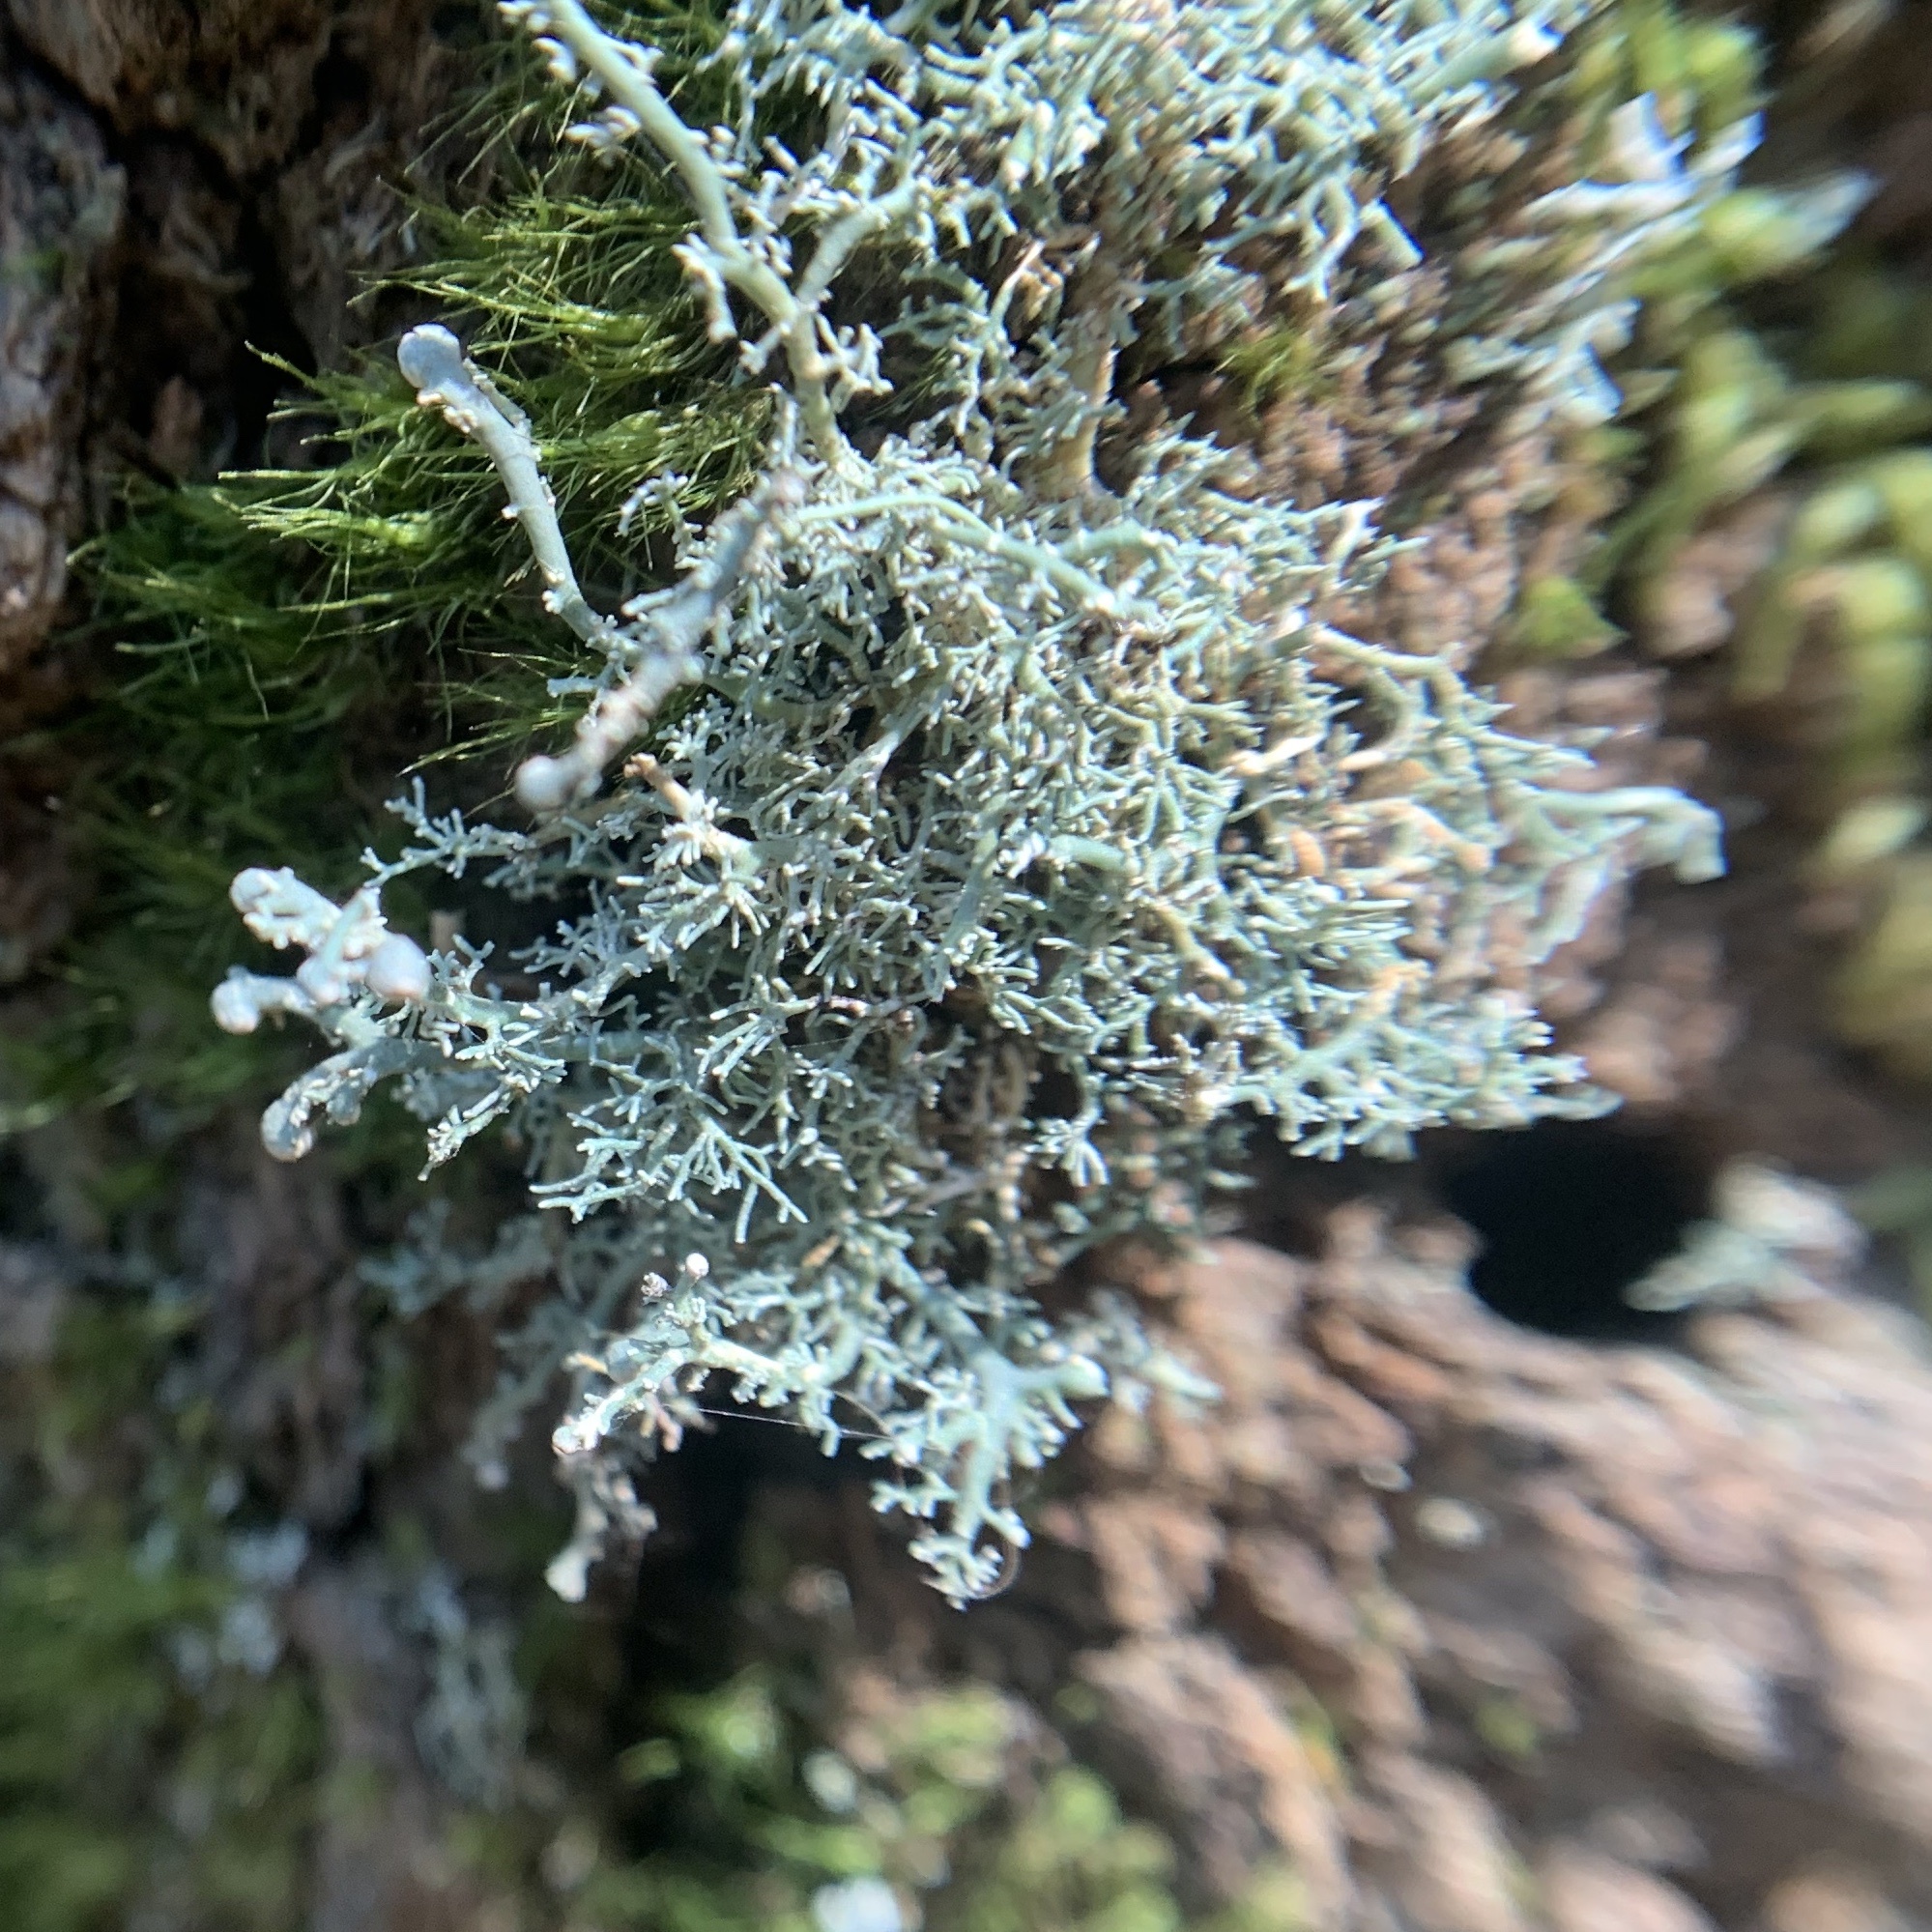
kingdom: Fungi
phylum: Ascomycota
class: Lecanoromycetes
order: Lecanorales
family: Sphaerophoraceae
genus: Sphaerophorus
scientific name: Sphaerophorus globosus
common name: Globe ball lichen
